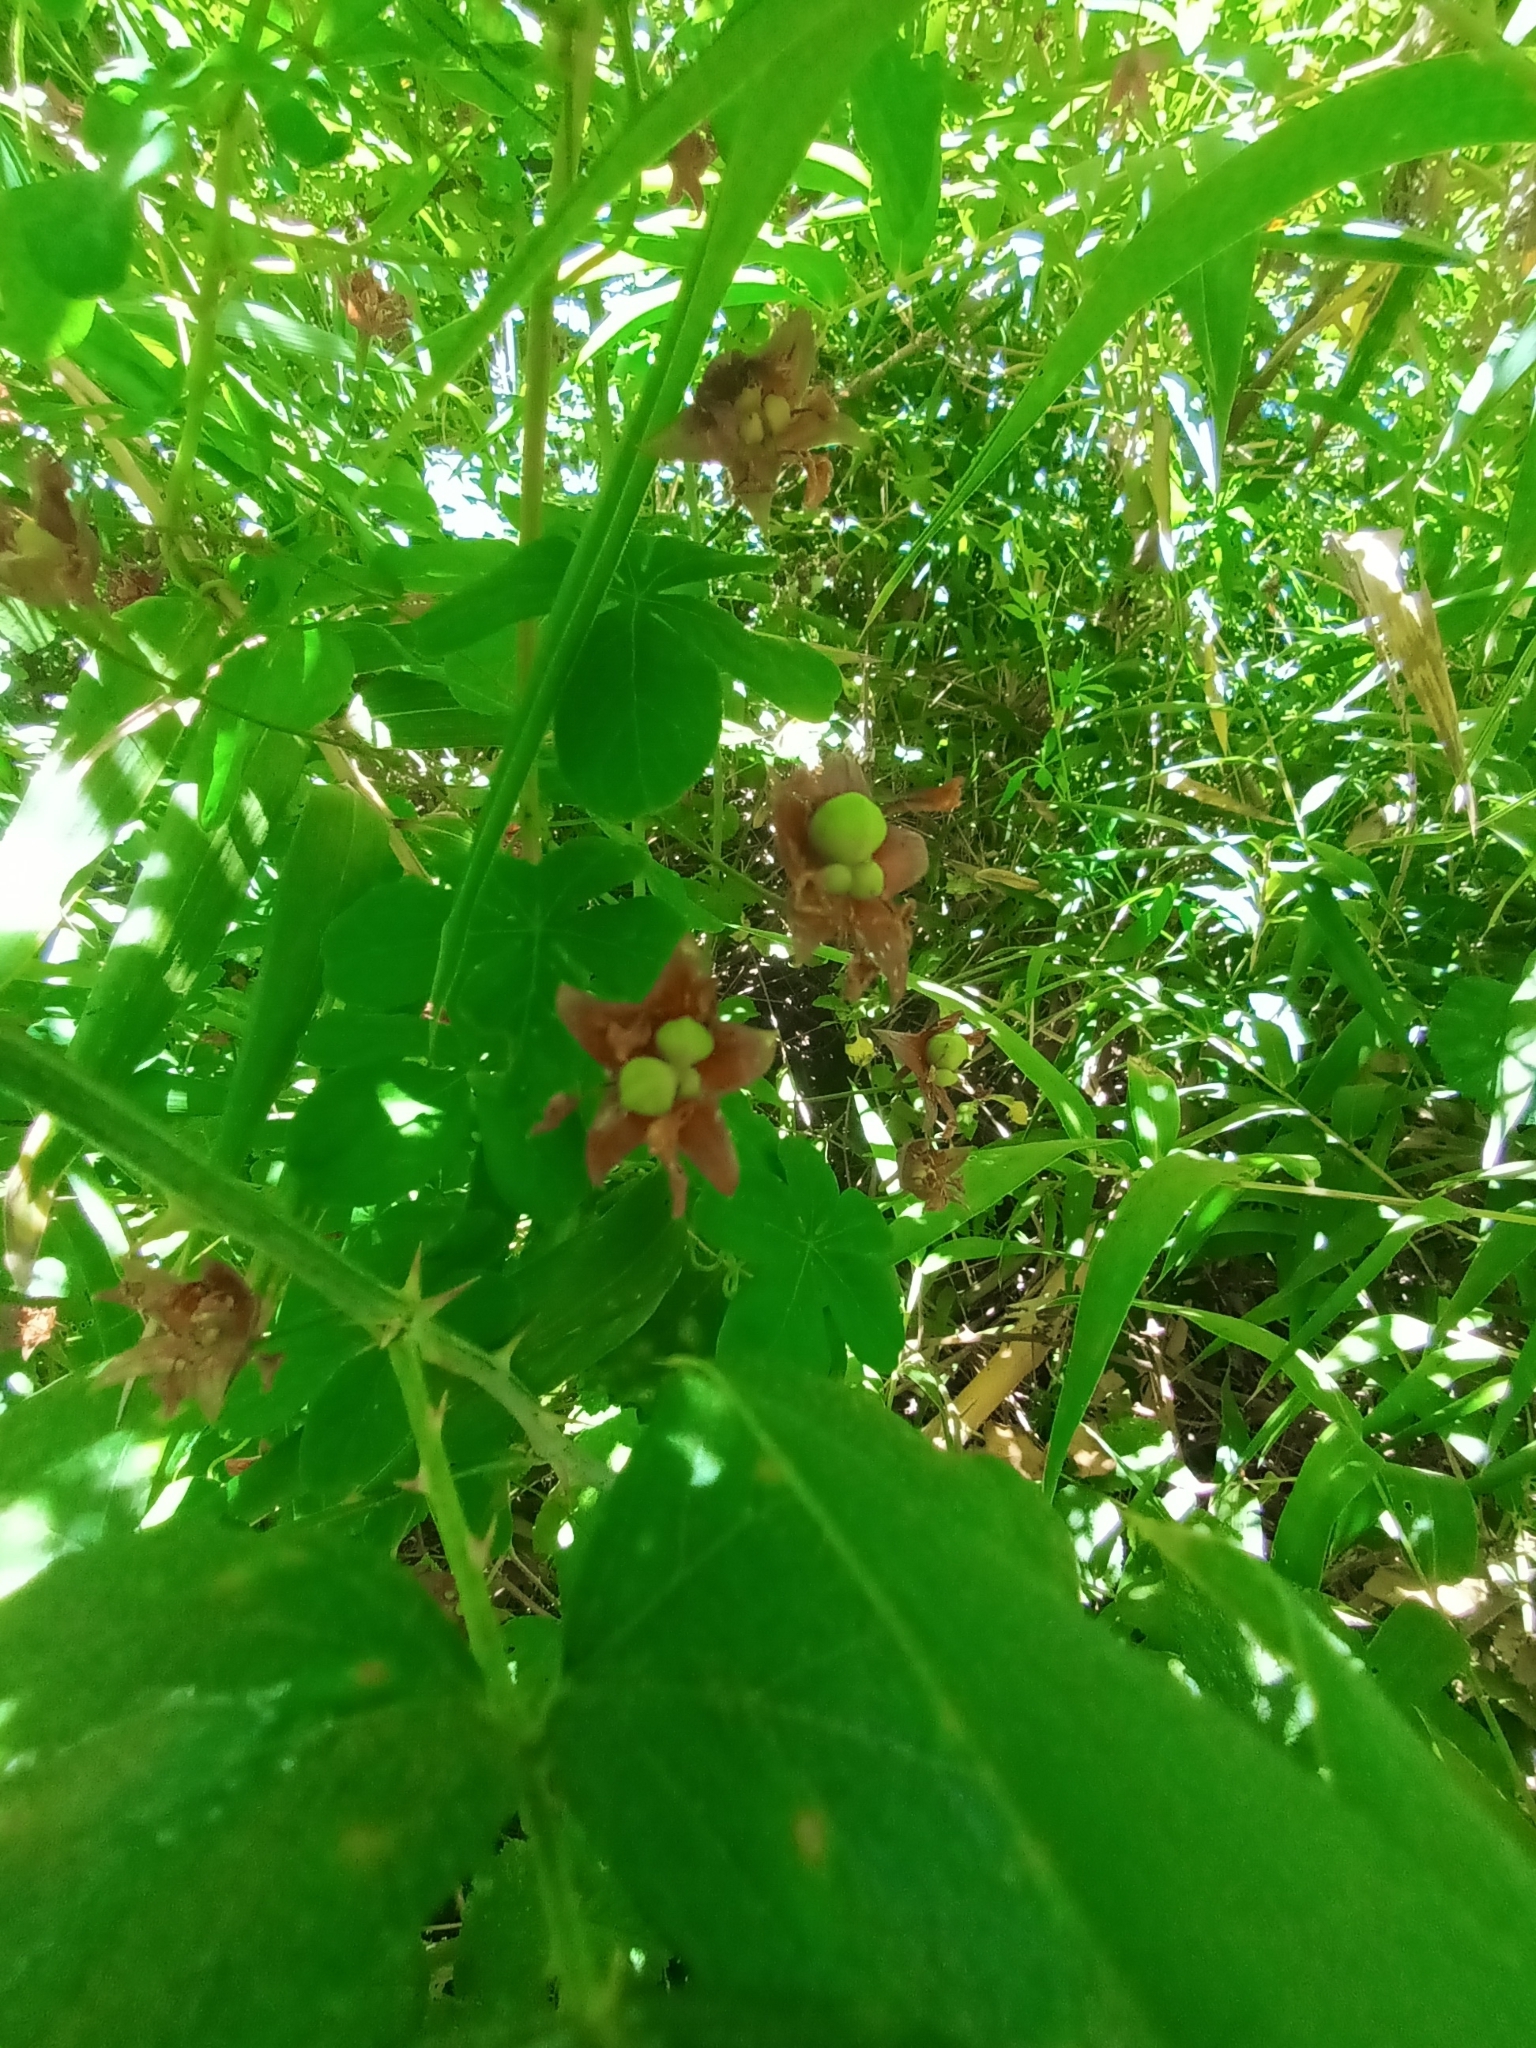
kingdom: Plantae
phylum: Tracheophyta
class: Magnoliopsida
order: Brassicales
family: Tropaeolaceae
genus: Tropaeolum
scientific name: Tropaeolum ciliatum
